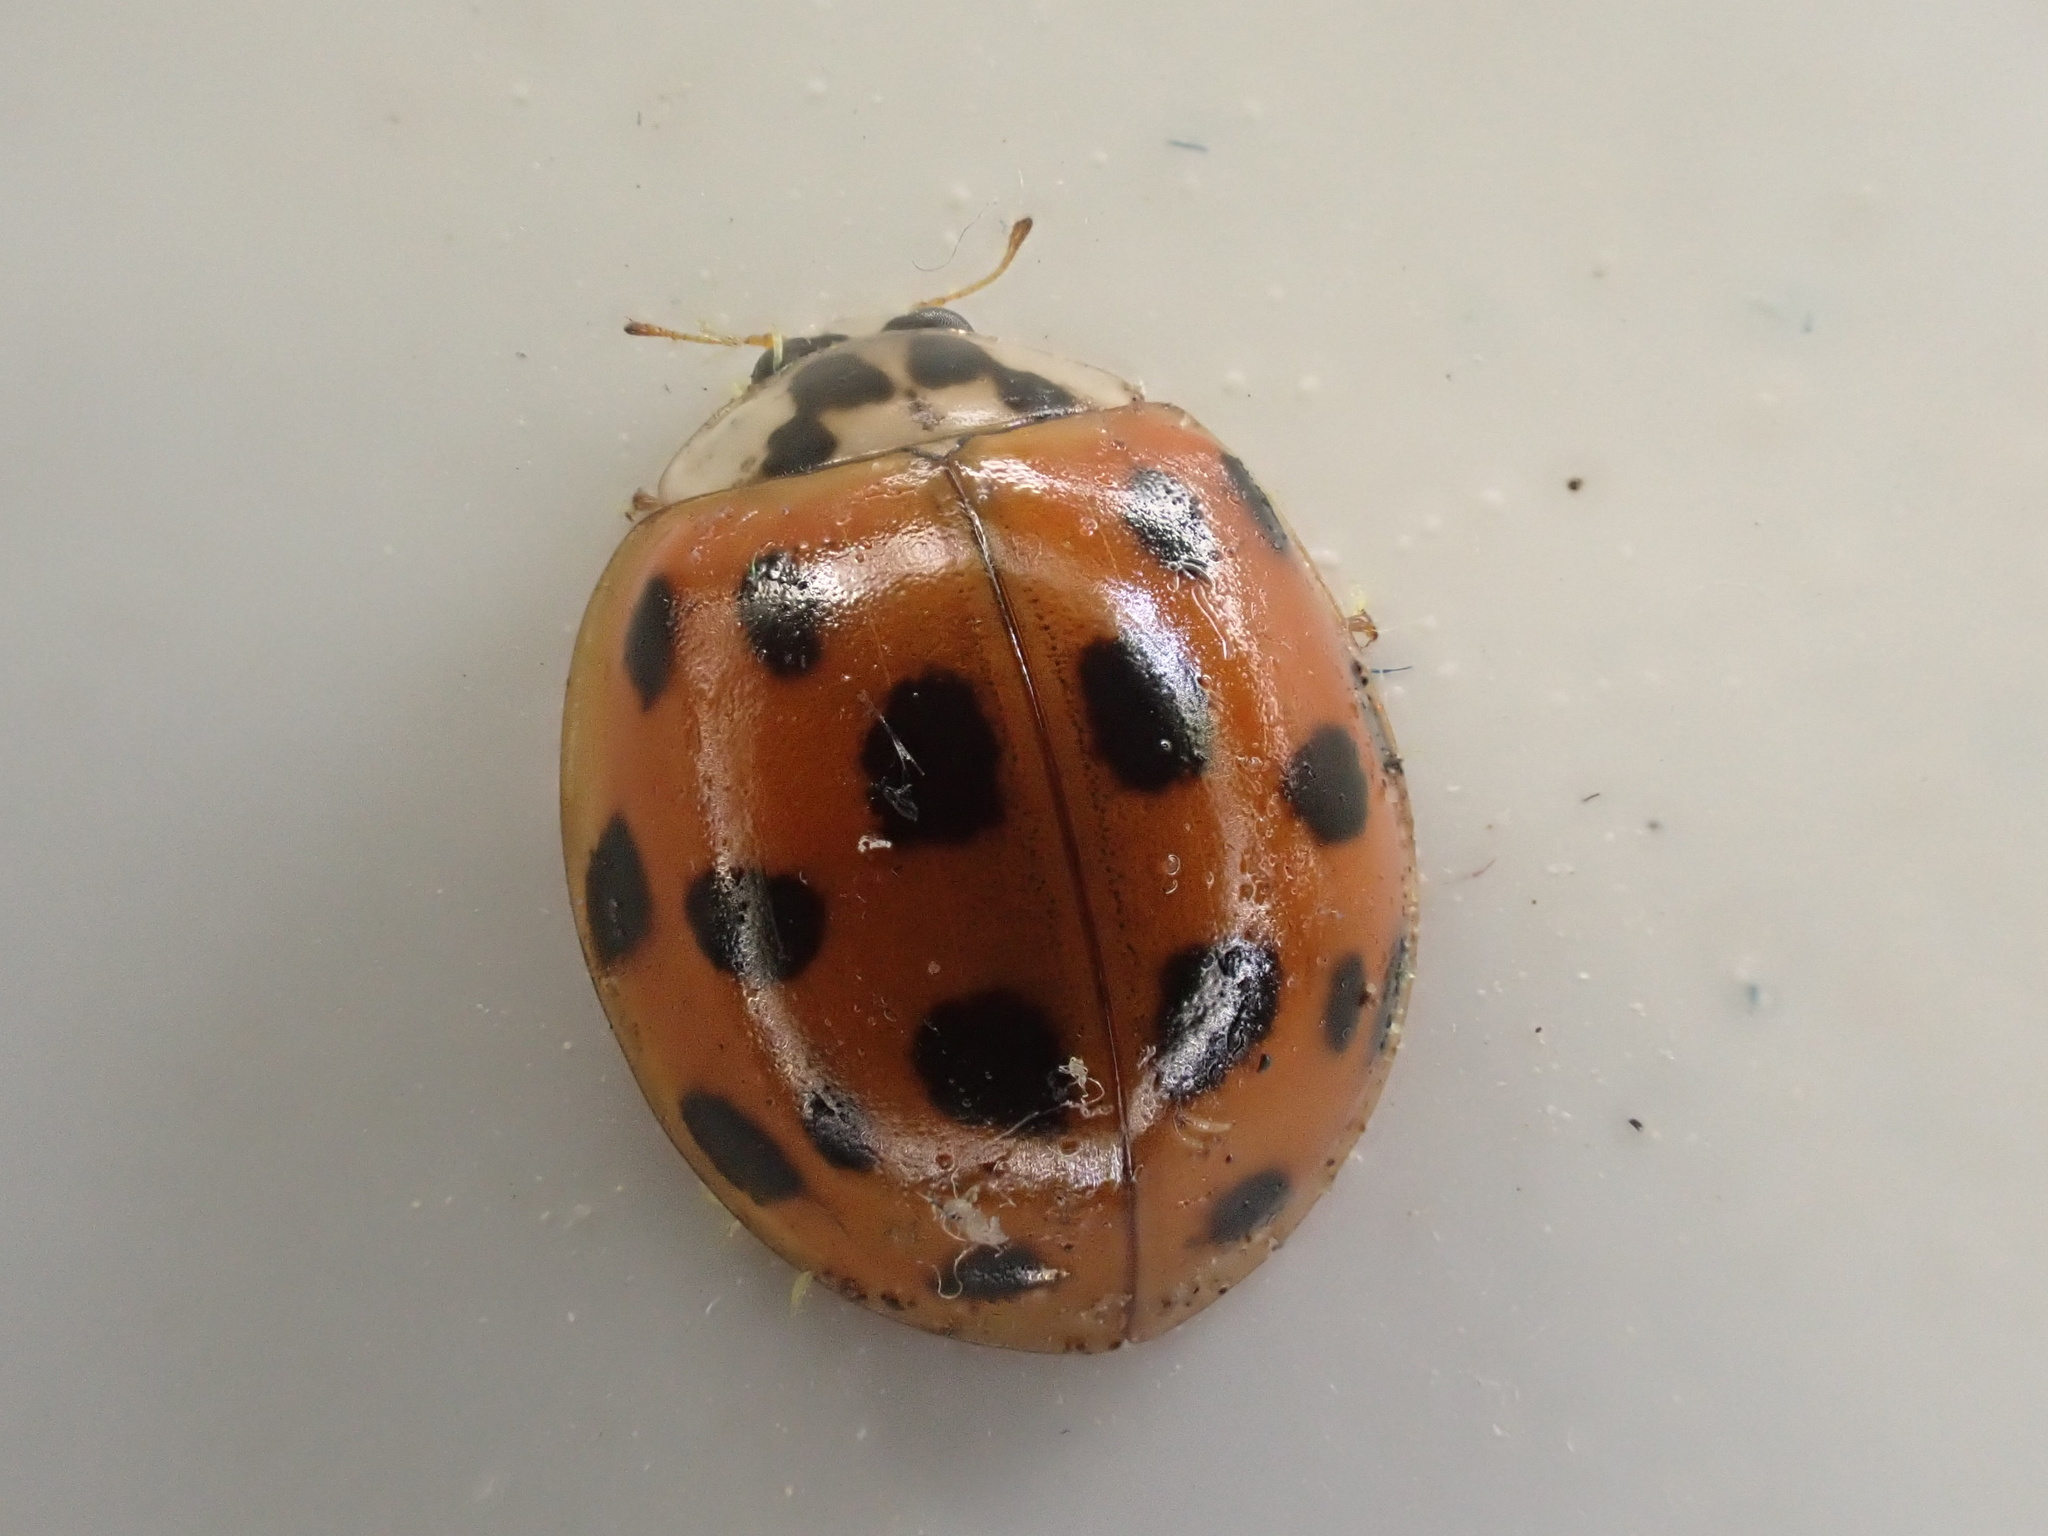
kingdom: Animalia
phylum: Arthropoda
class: Insecta
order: Coleoptera
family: Coccinellidae
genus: Harmonia
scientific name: Harmonia axyridis
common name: Harlequin ladybird
